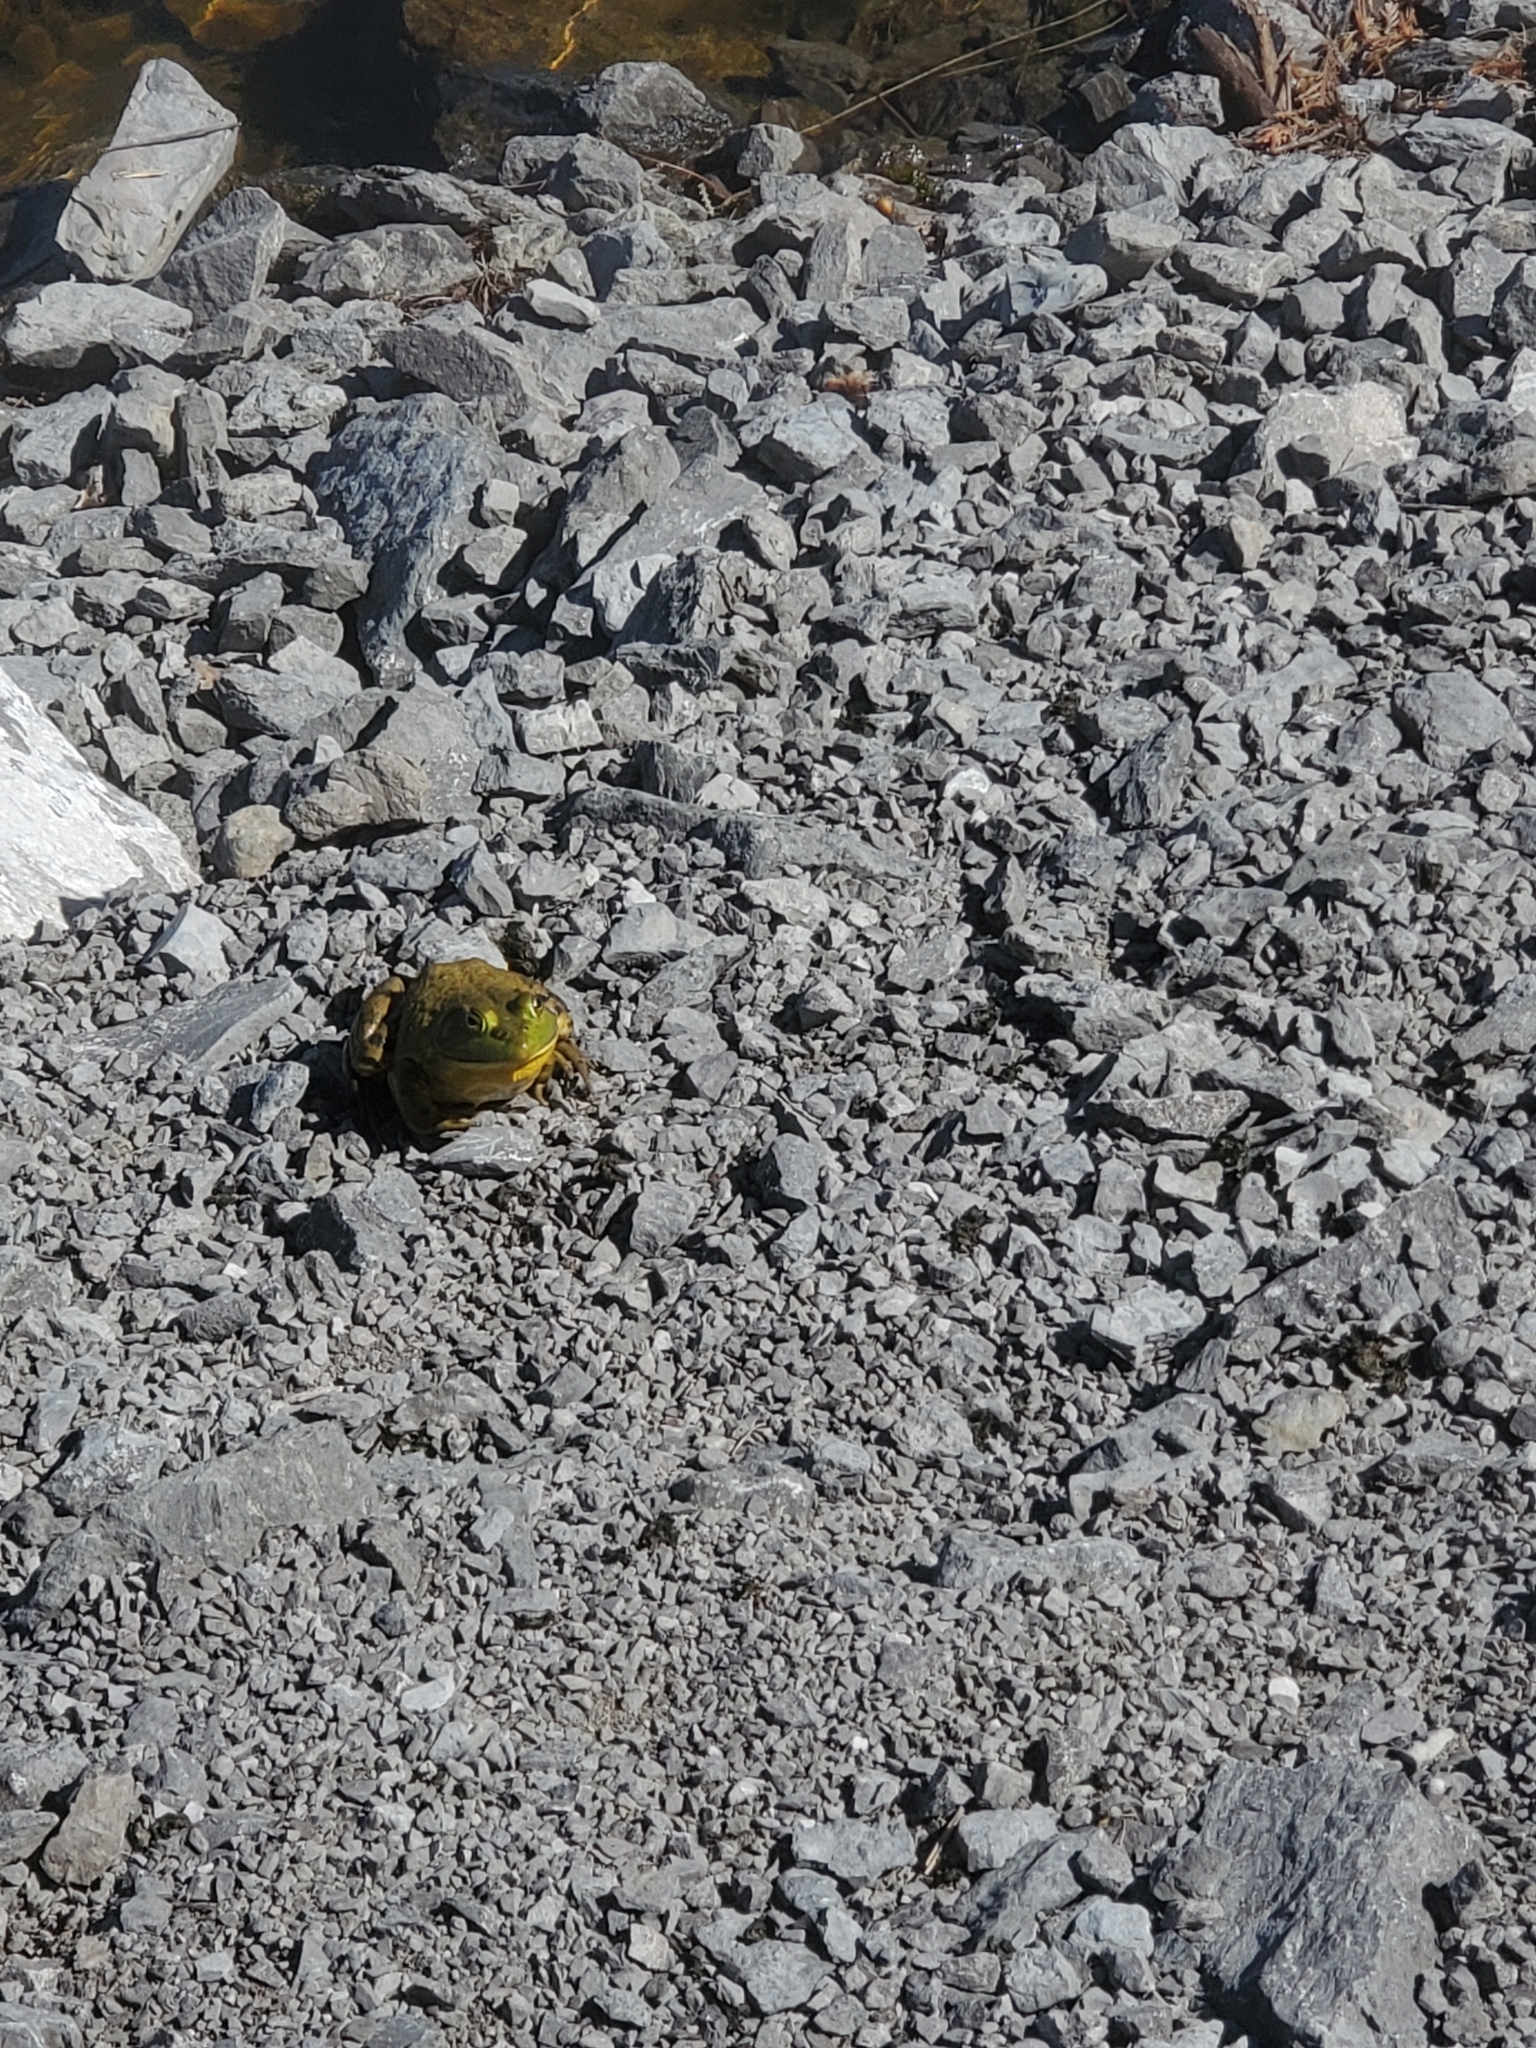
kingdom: Animalia
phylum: Chordata
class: Amphibia
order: Anura
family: Ranidae
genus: Lithobates
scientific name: Lithobates catesbeianus
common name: American bullfrog
